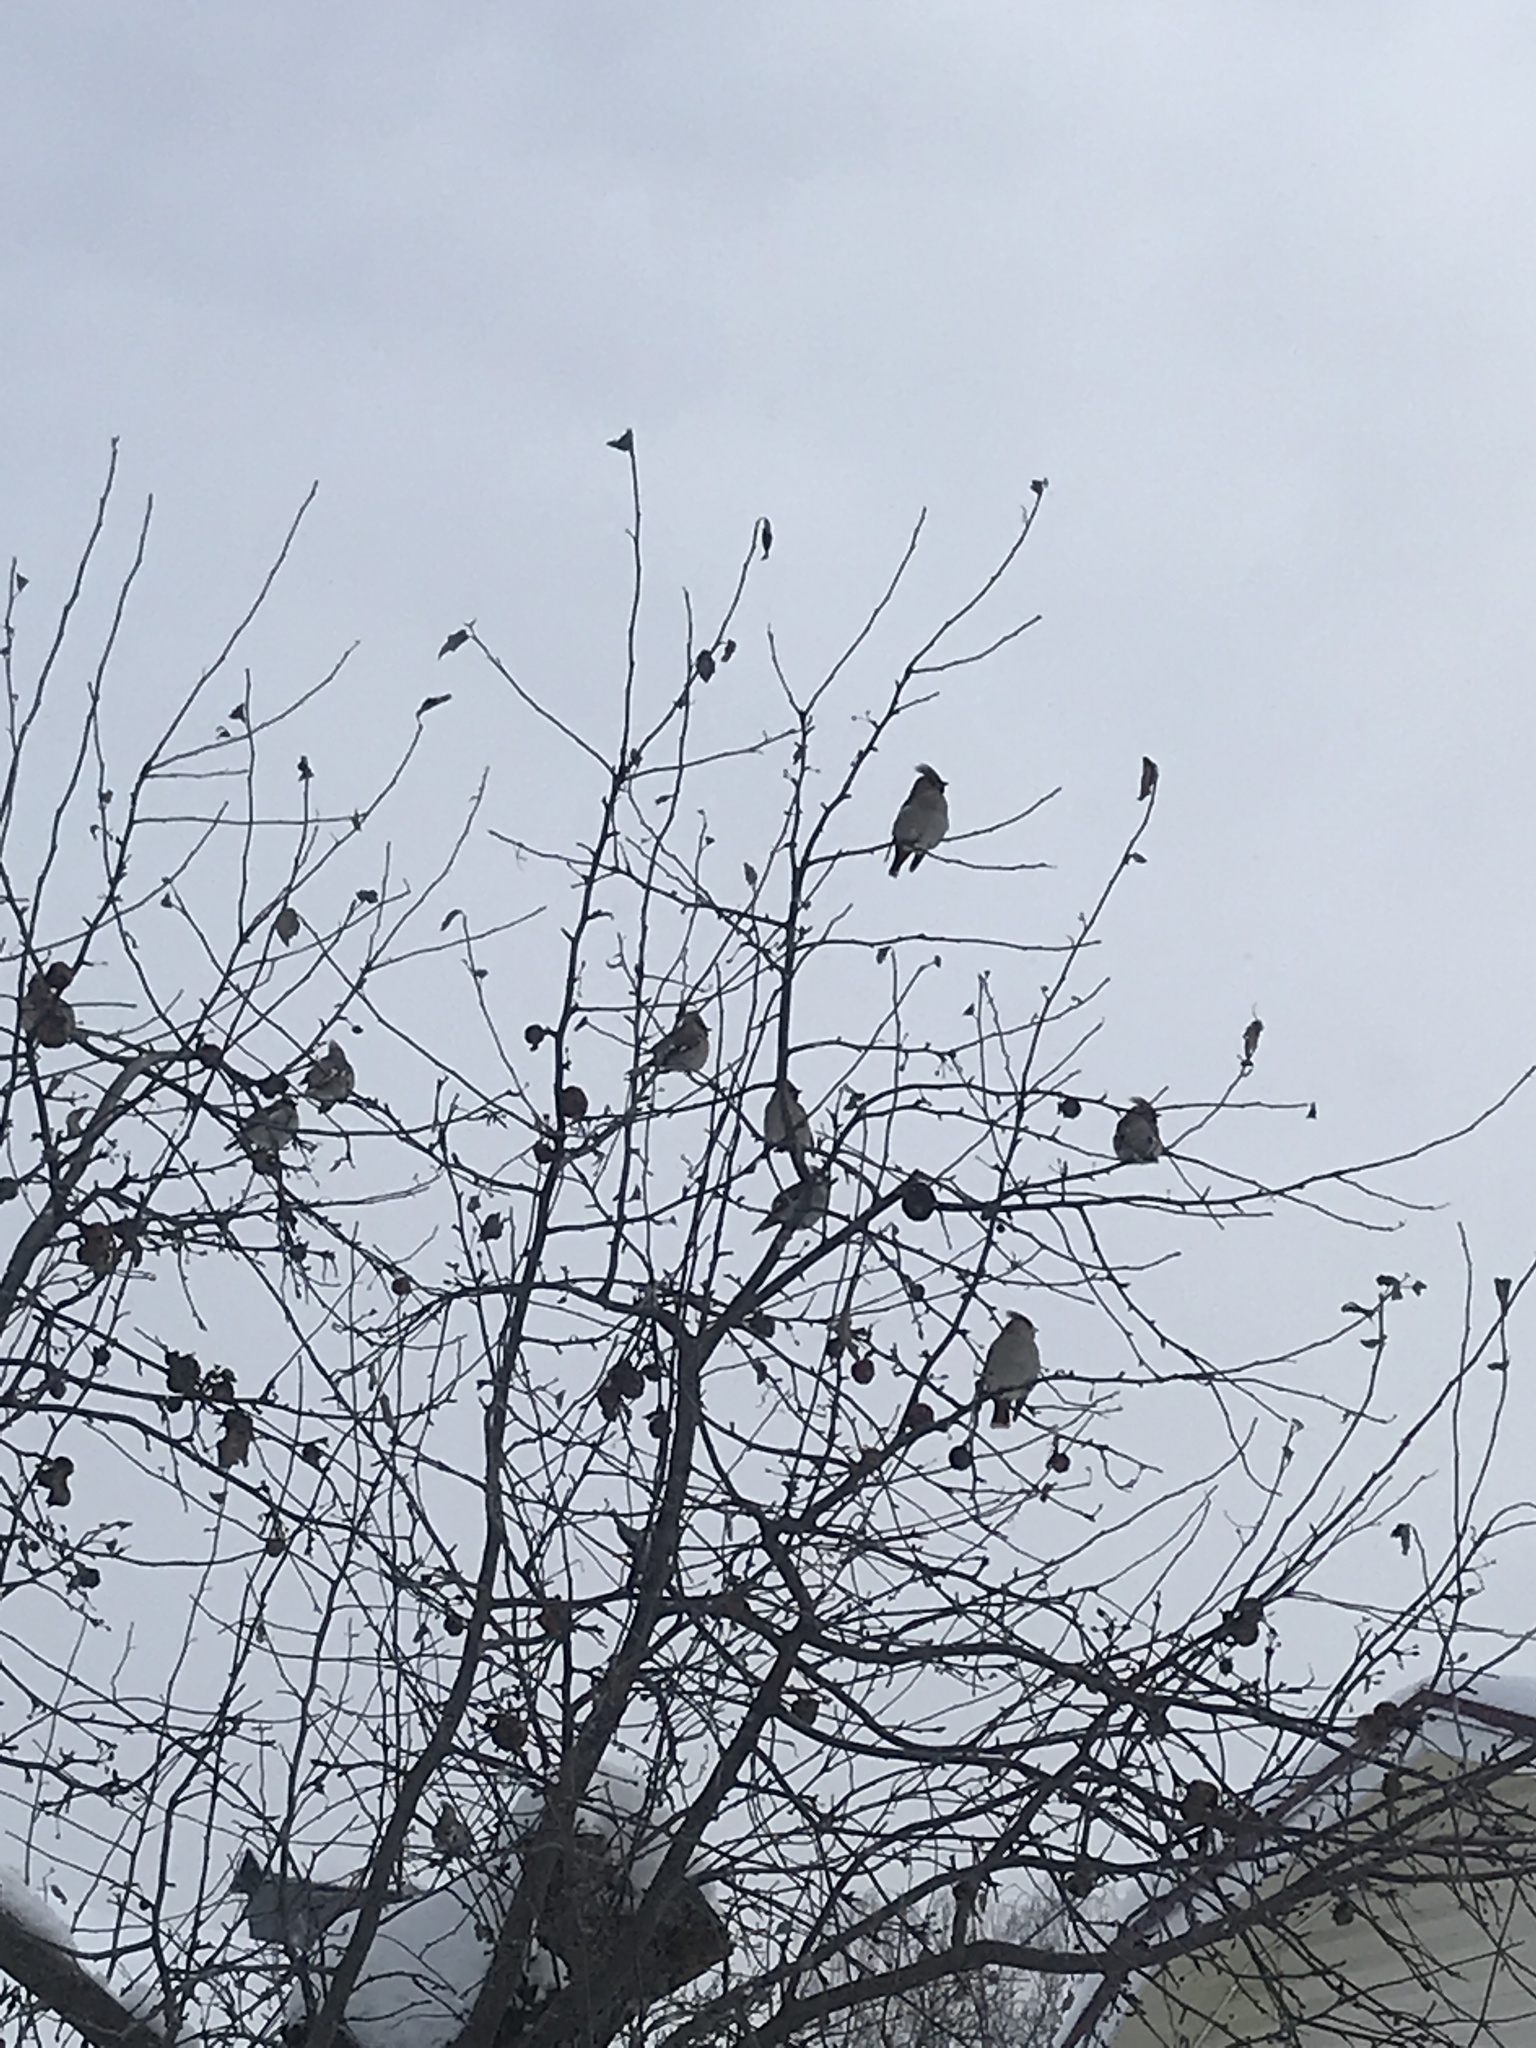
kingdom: Animalia
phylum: Chordata
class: Aves
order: Passeriformes
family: Bombycillidae
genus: Bombycilla
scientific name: Bombycilla garrulus
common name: Bohemian waxwing
